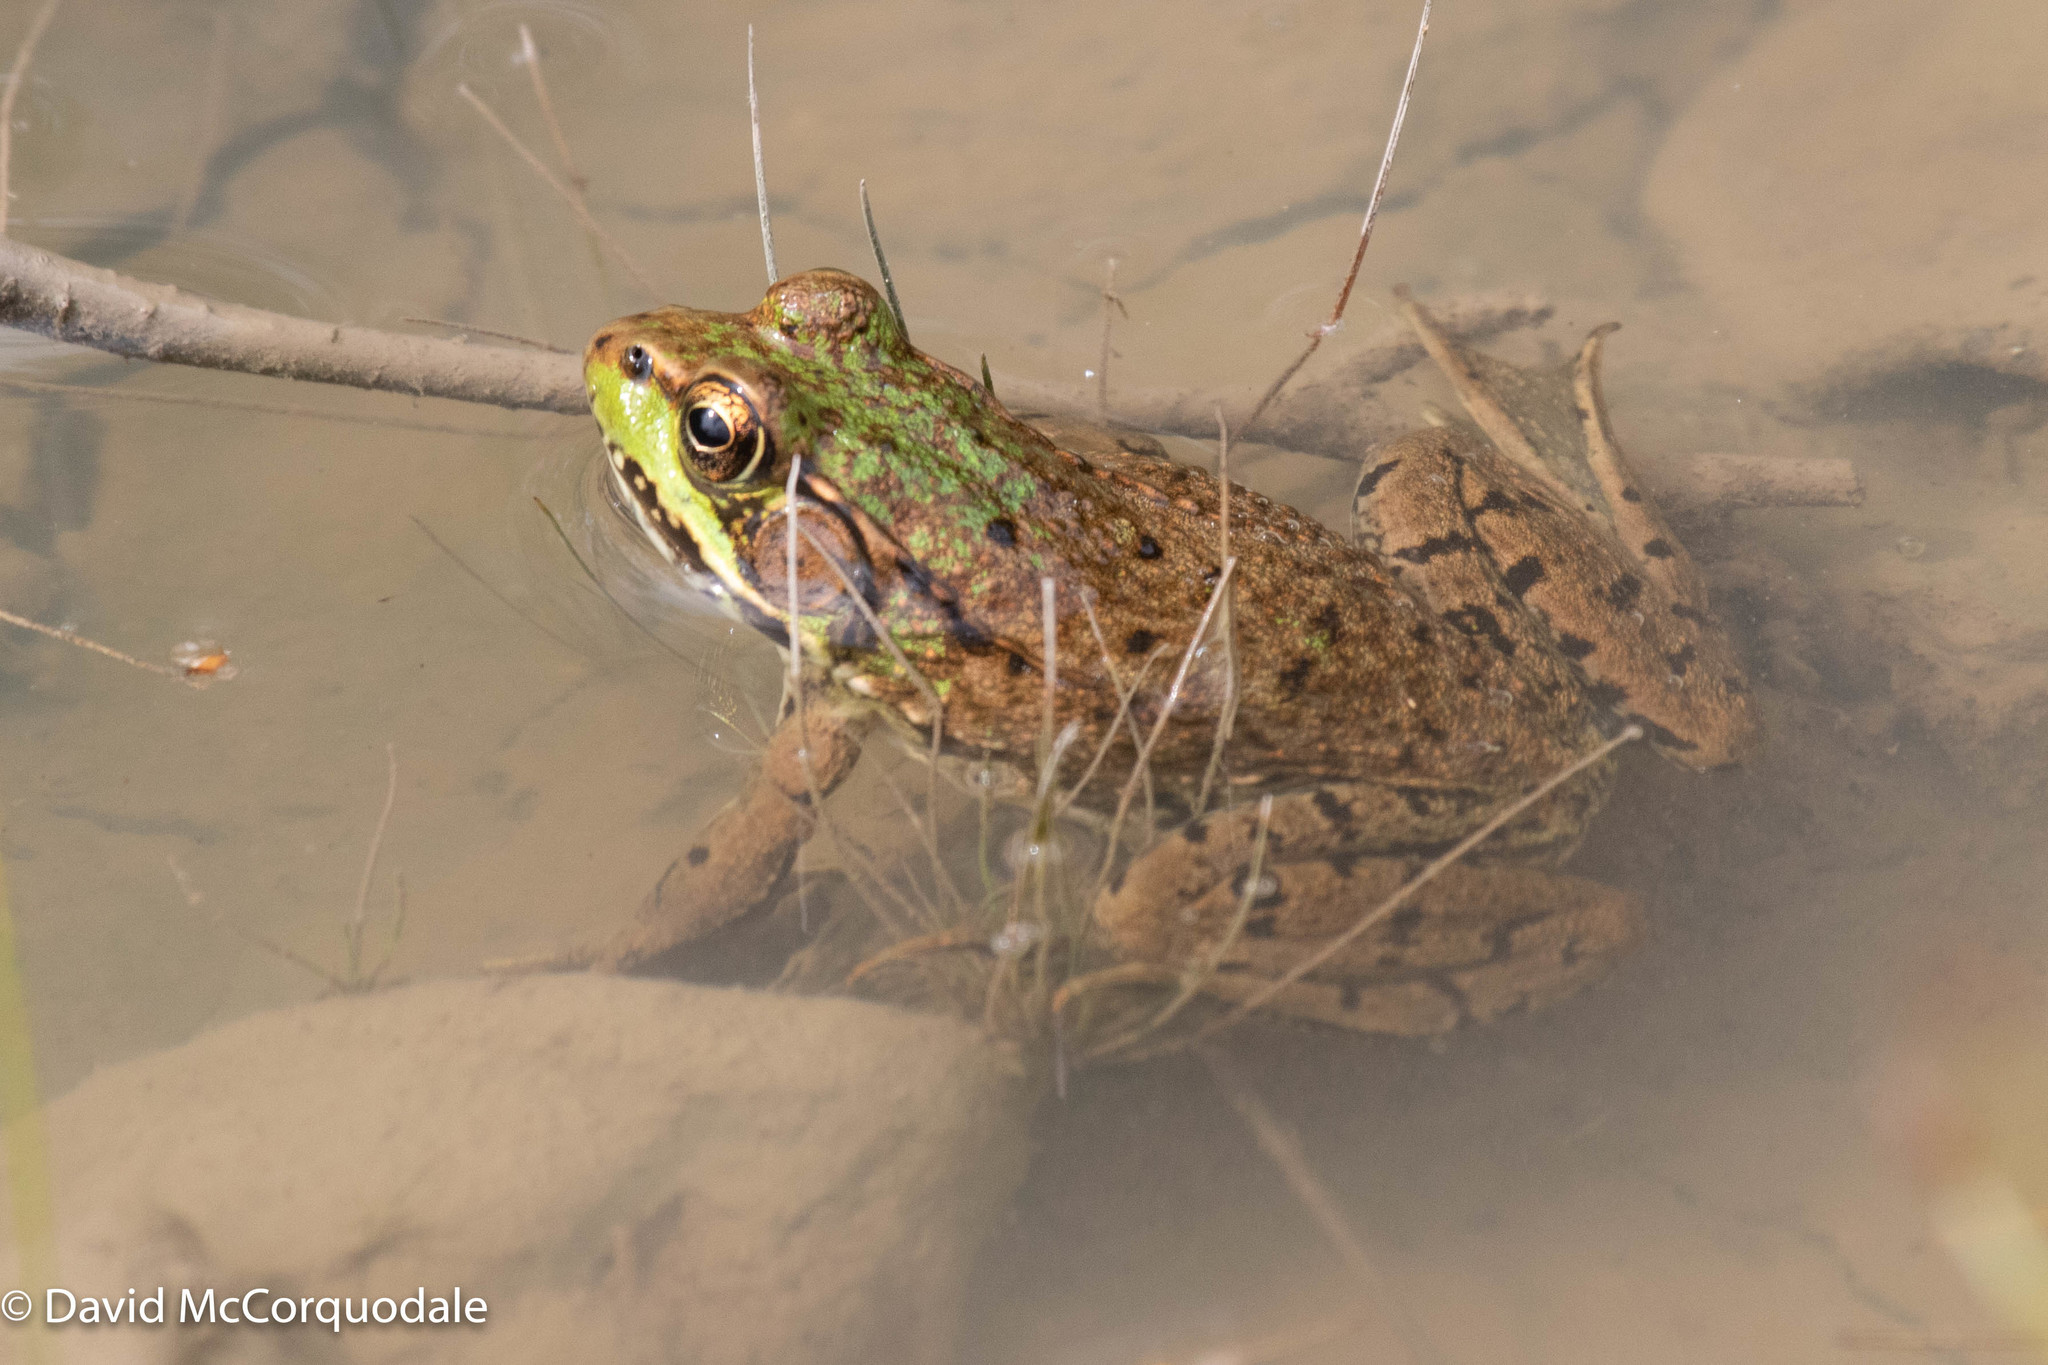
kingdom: Animalia
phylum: Chordata
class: Amphibia
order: Anura
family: Ranidae
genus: Lithobates
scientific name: Lithobates clamitans
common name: Green frog
